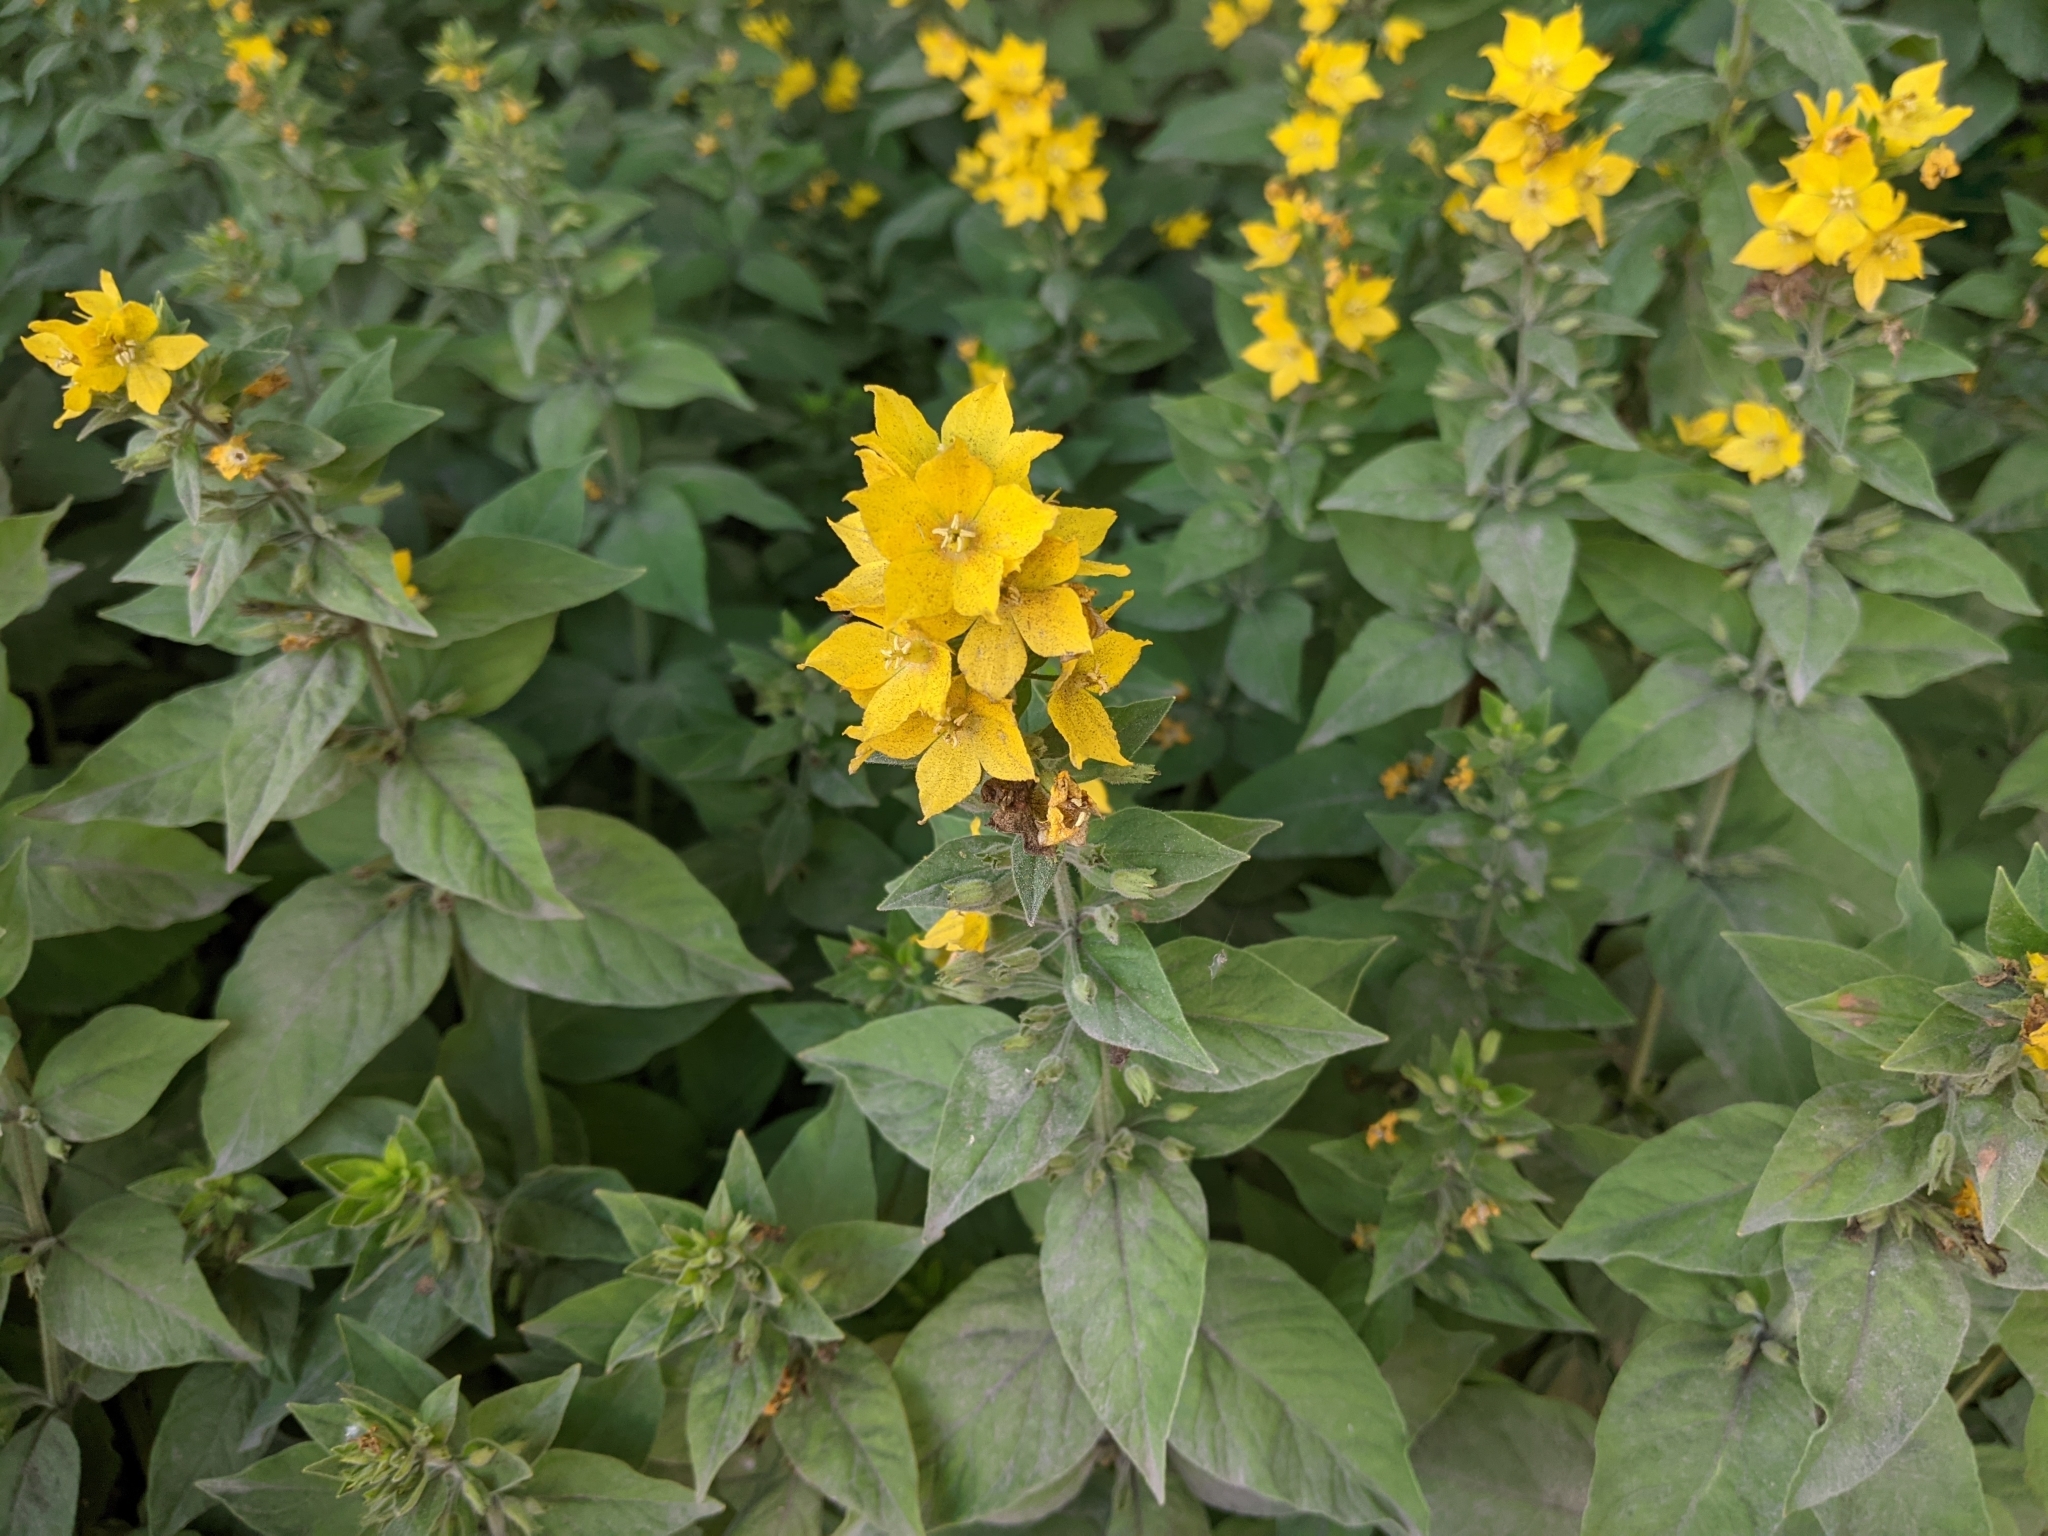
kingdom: Plantae
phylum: Tracheophyta
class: Magnoliopsida
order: Ericales
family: Primulaceae
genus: Lysimachia
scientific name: Lysimachia punctata
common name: Dotted loosestrife
